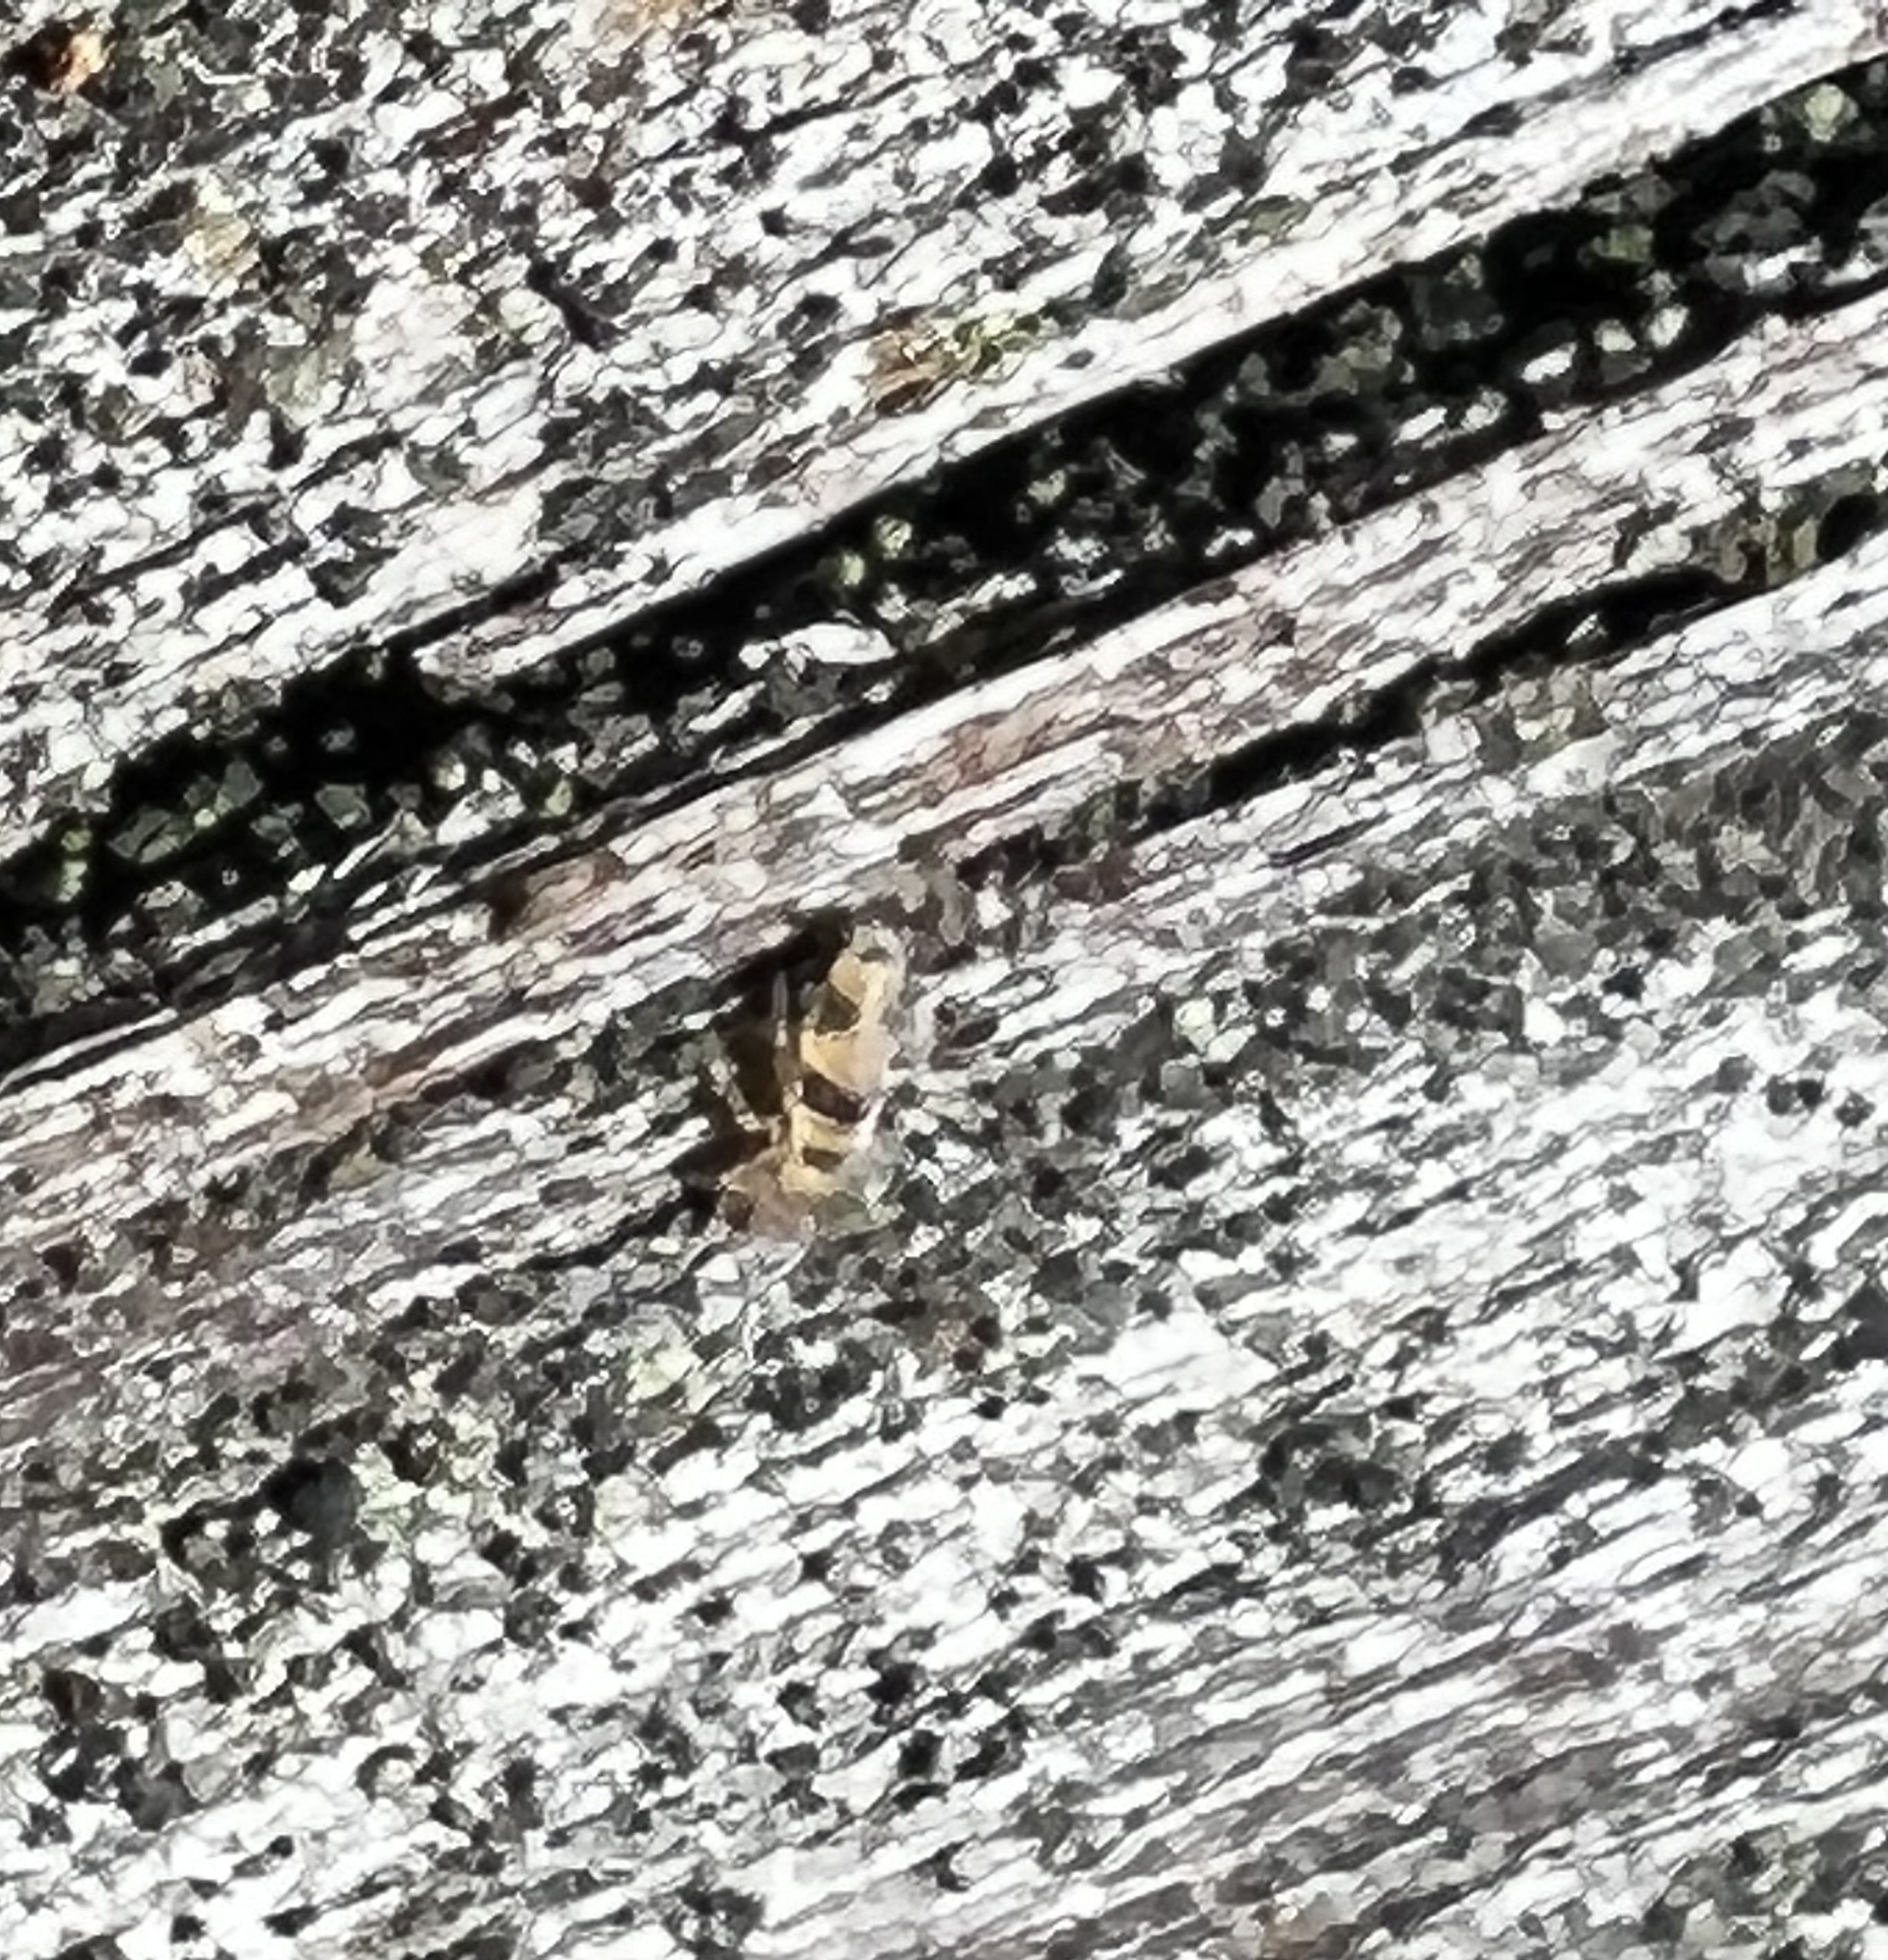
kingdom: Animalia
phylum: Arthropoda
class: Collembola
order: Entomobryomorpha
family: Entomobryidae
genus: Entomobrya
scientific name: Entomobrya katzi
